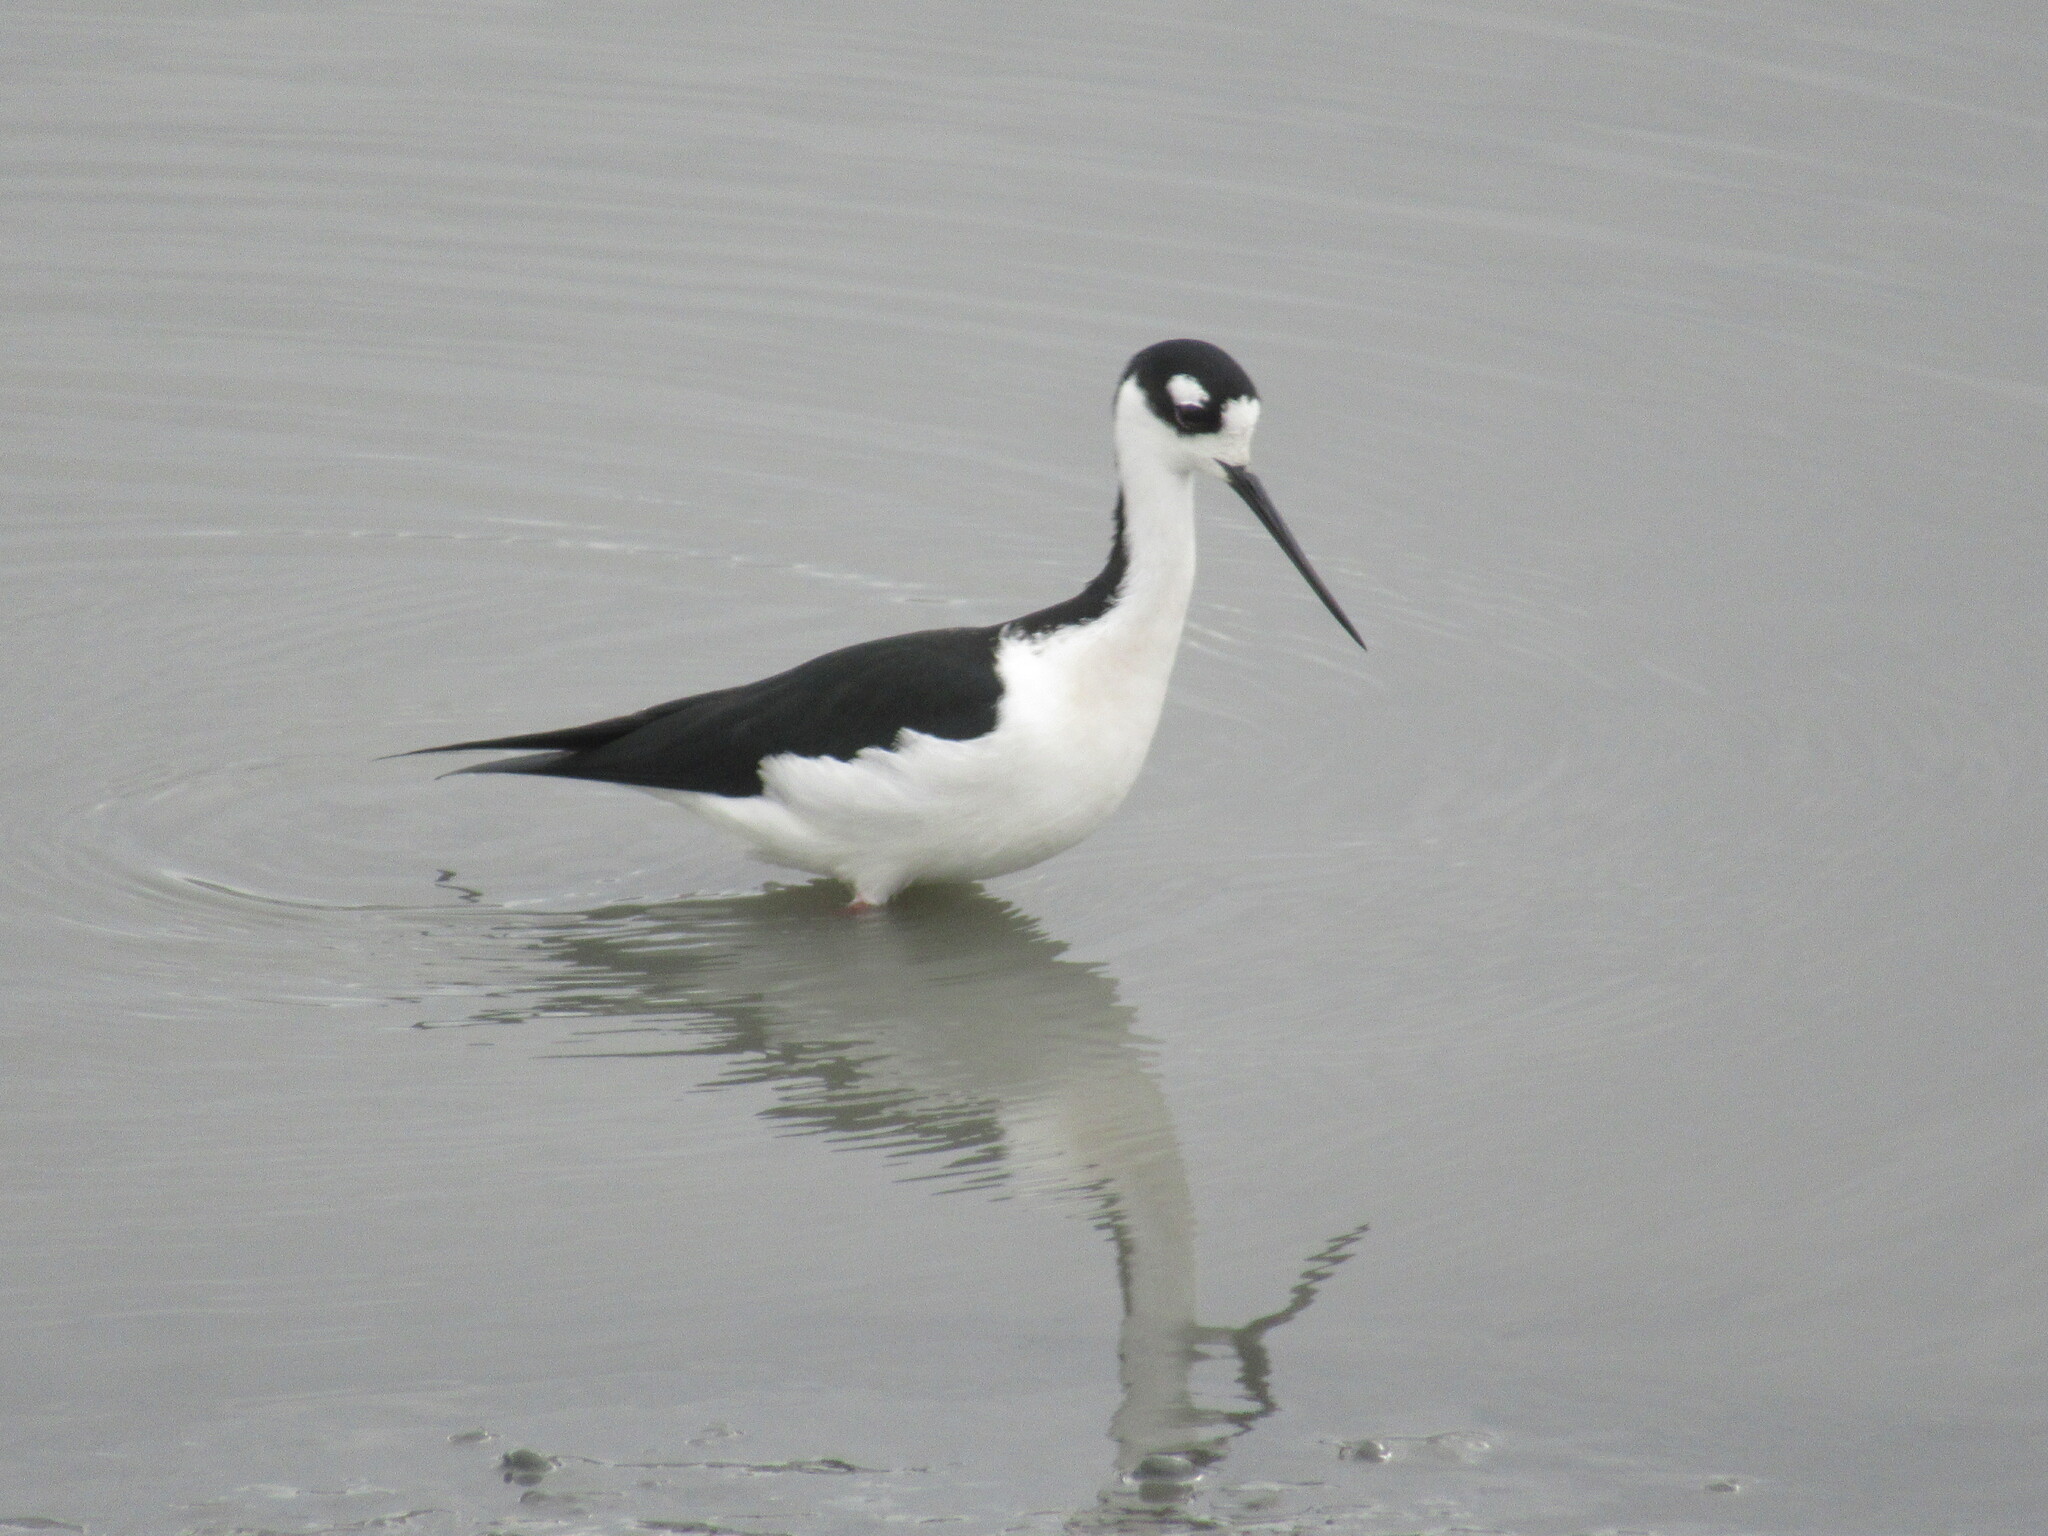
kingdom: Animalia
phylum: Chordata
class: Aves
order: Charadriiformes
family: Recurvirostridae
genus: Himantopus
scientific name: Himantopus mexicanus
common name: Black-necked stilt
